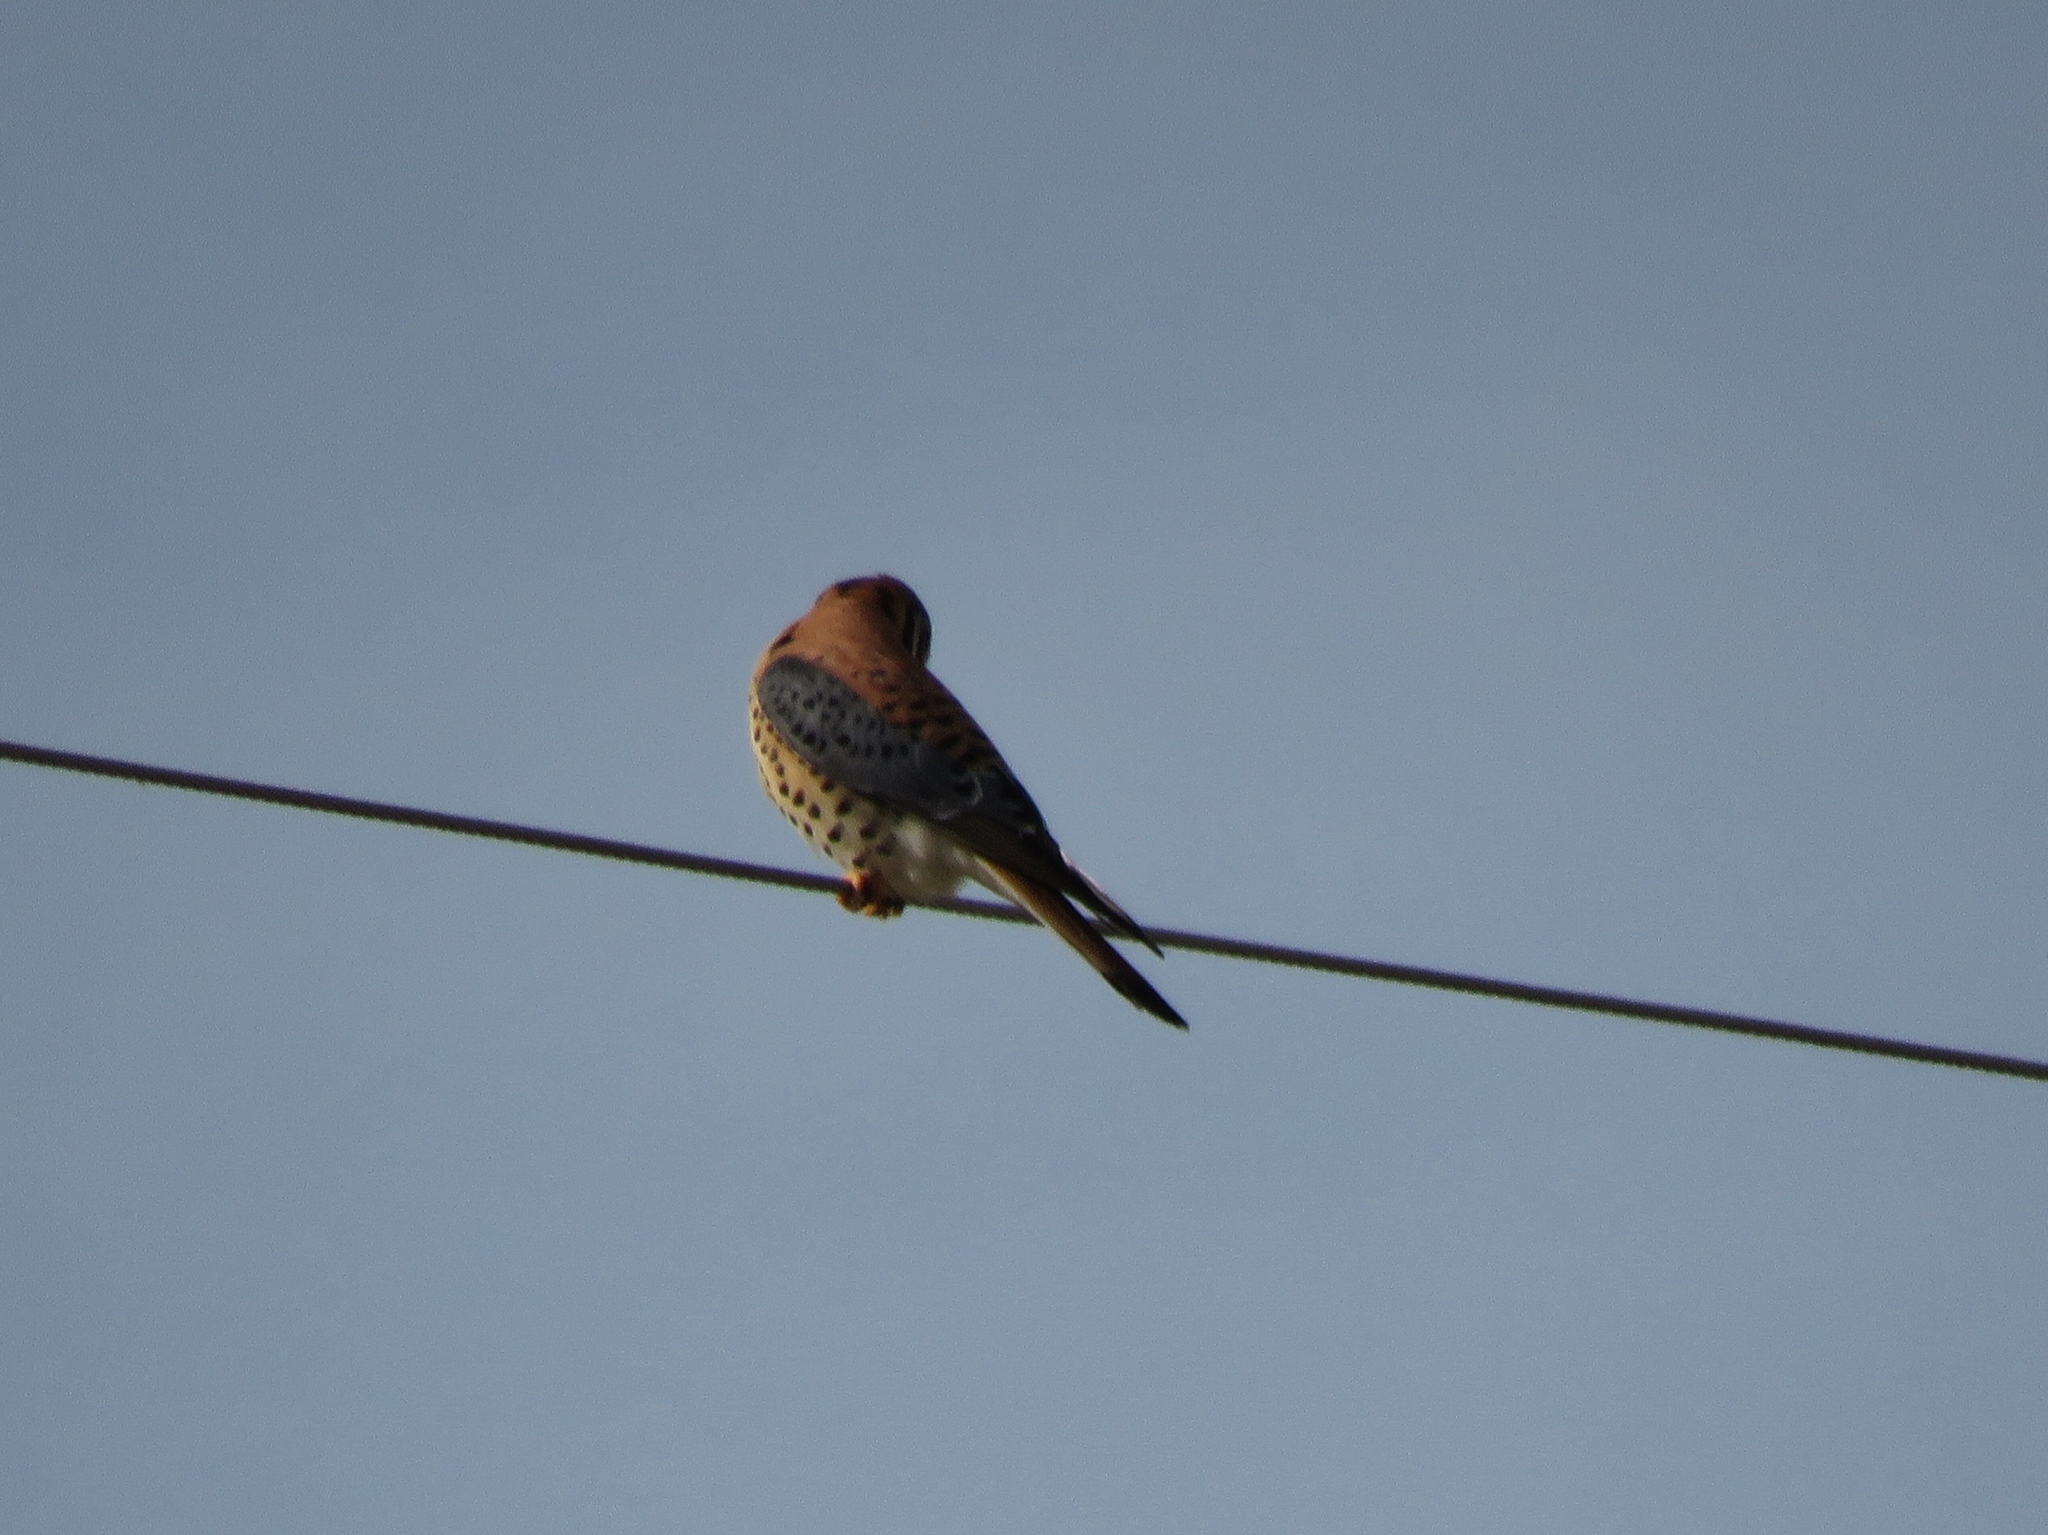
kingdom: Animalia
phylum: Chordata
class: Aves
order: Falconiformes
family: Falconidae
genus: Falco
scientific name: Falco sparverius
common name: American kestrel
